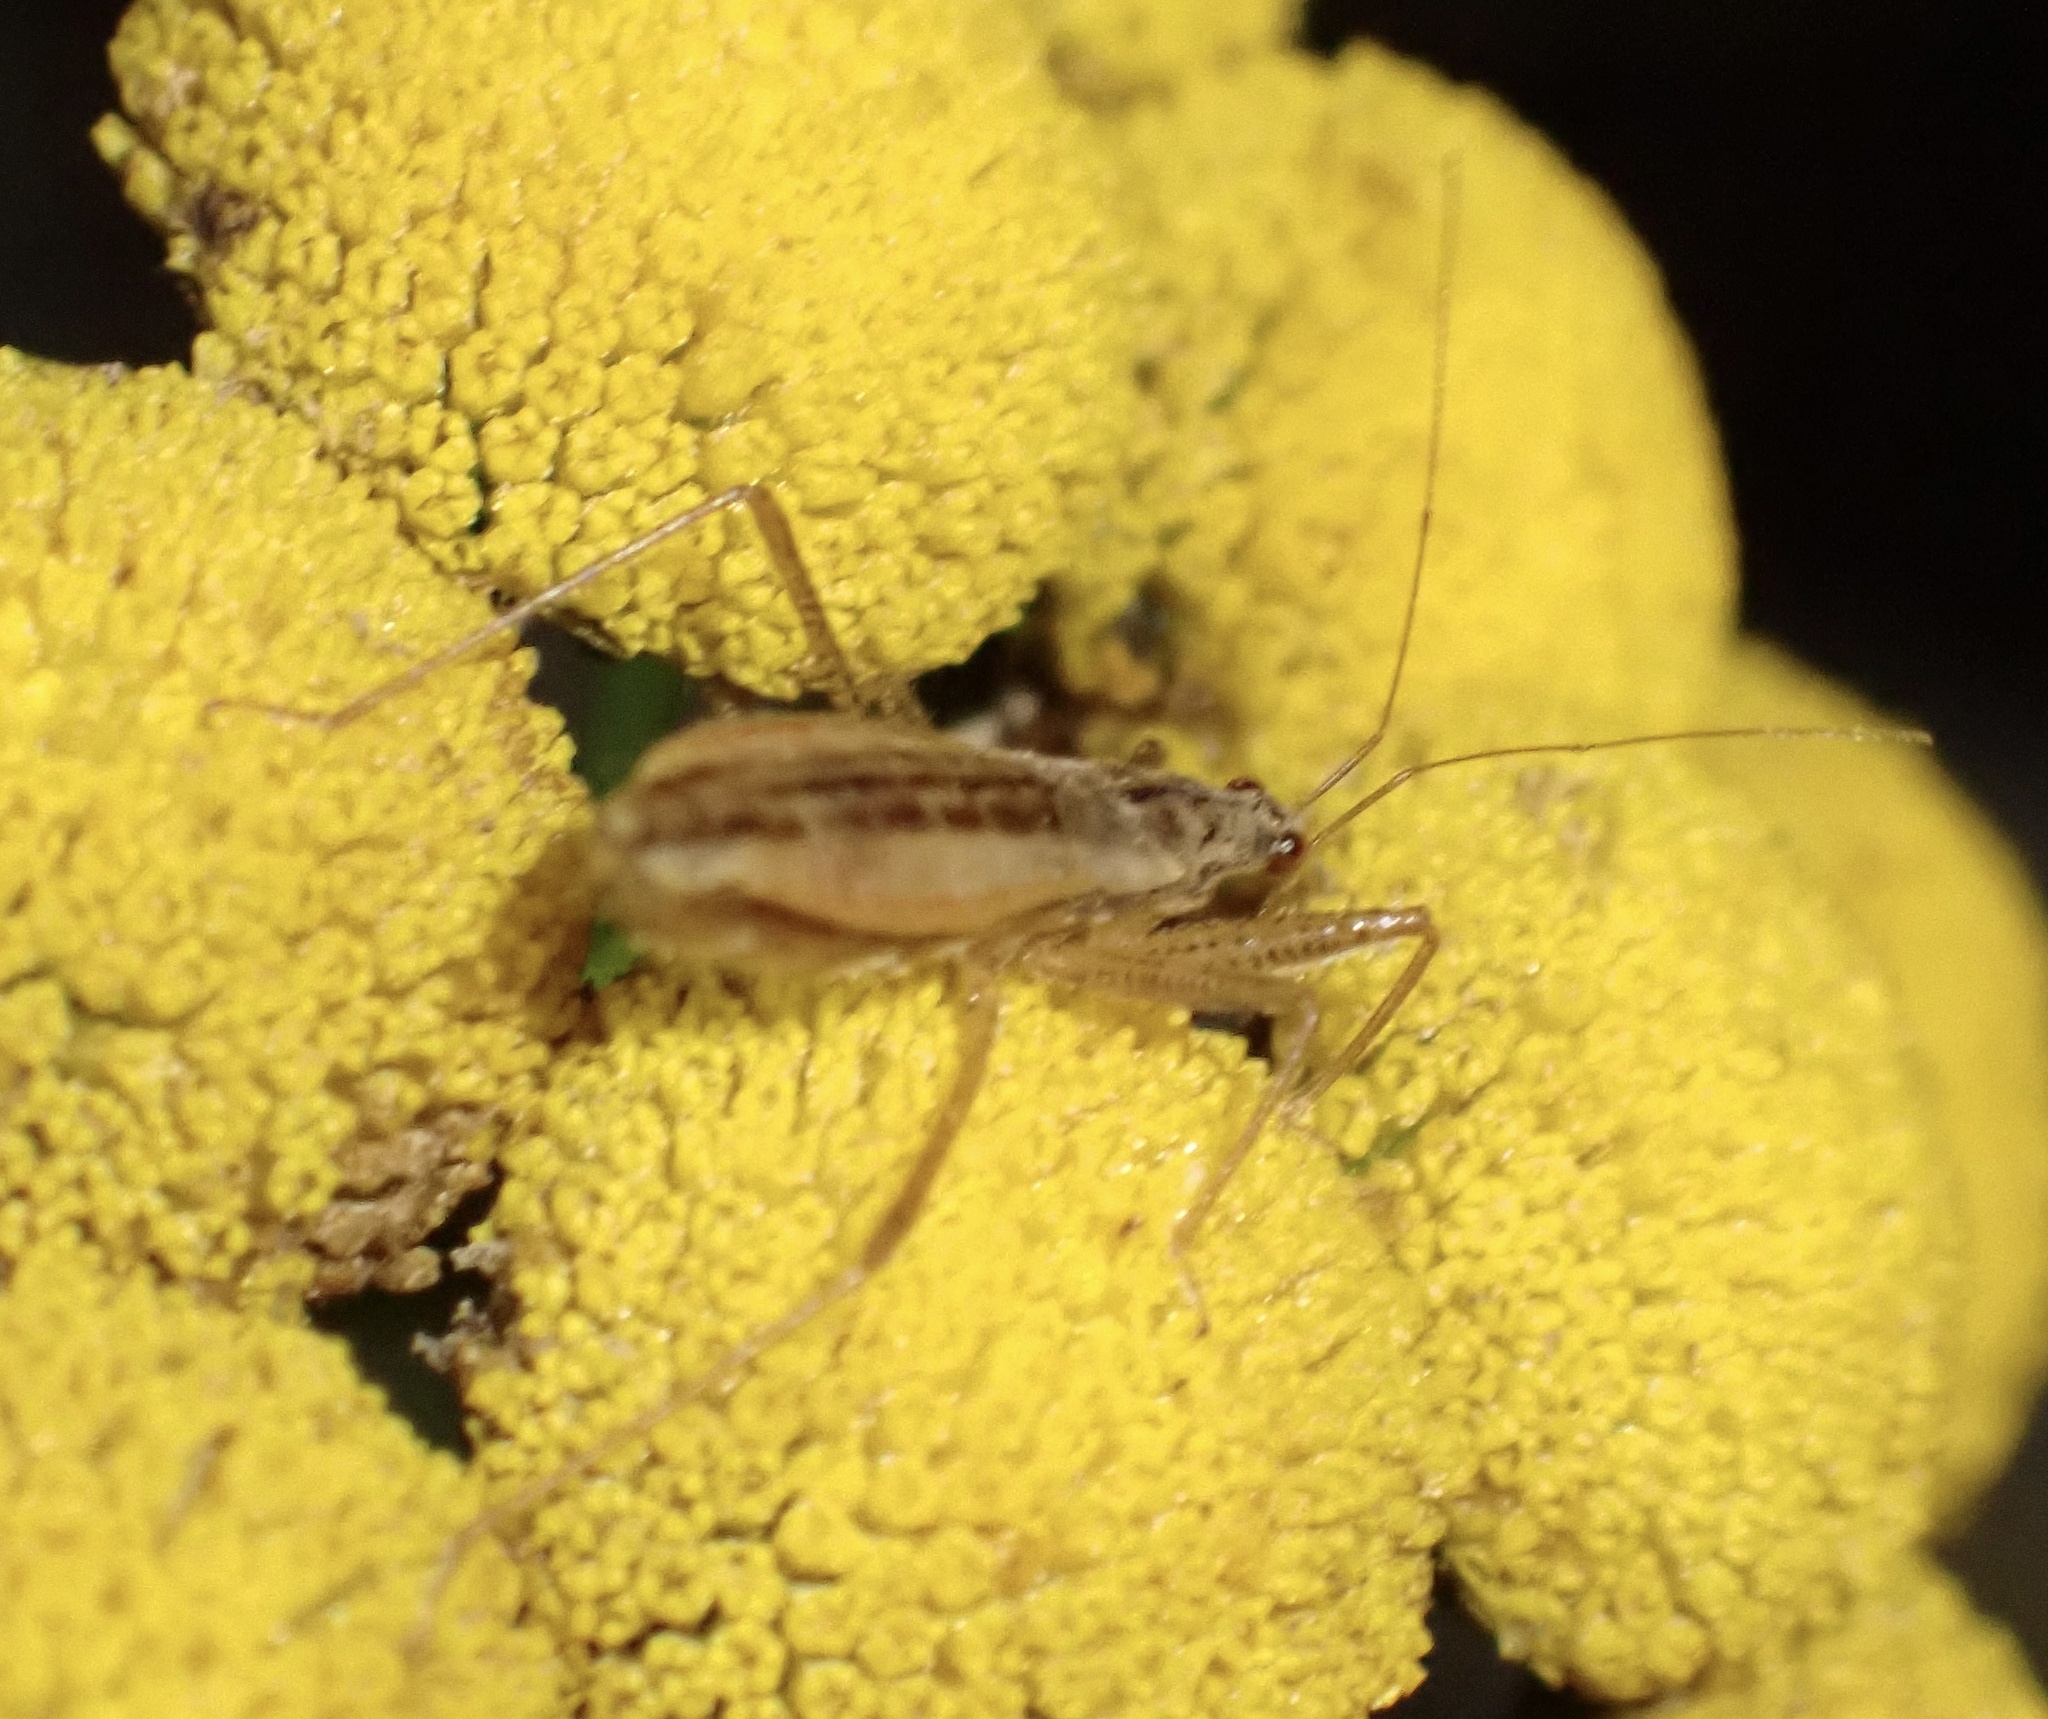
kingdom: Animalia
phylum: Arthropoda
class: Insecta
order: Hemiptera
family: Nabidae
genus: Nabis
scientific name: Nabis limbatus
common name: Marsh damselbug
